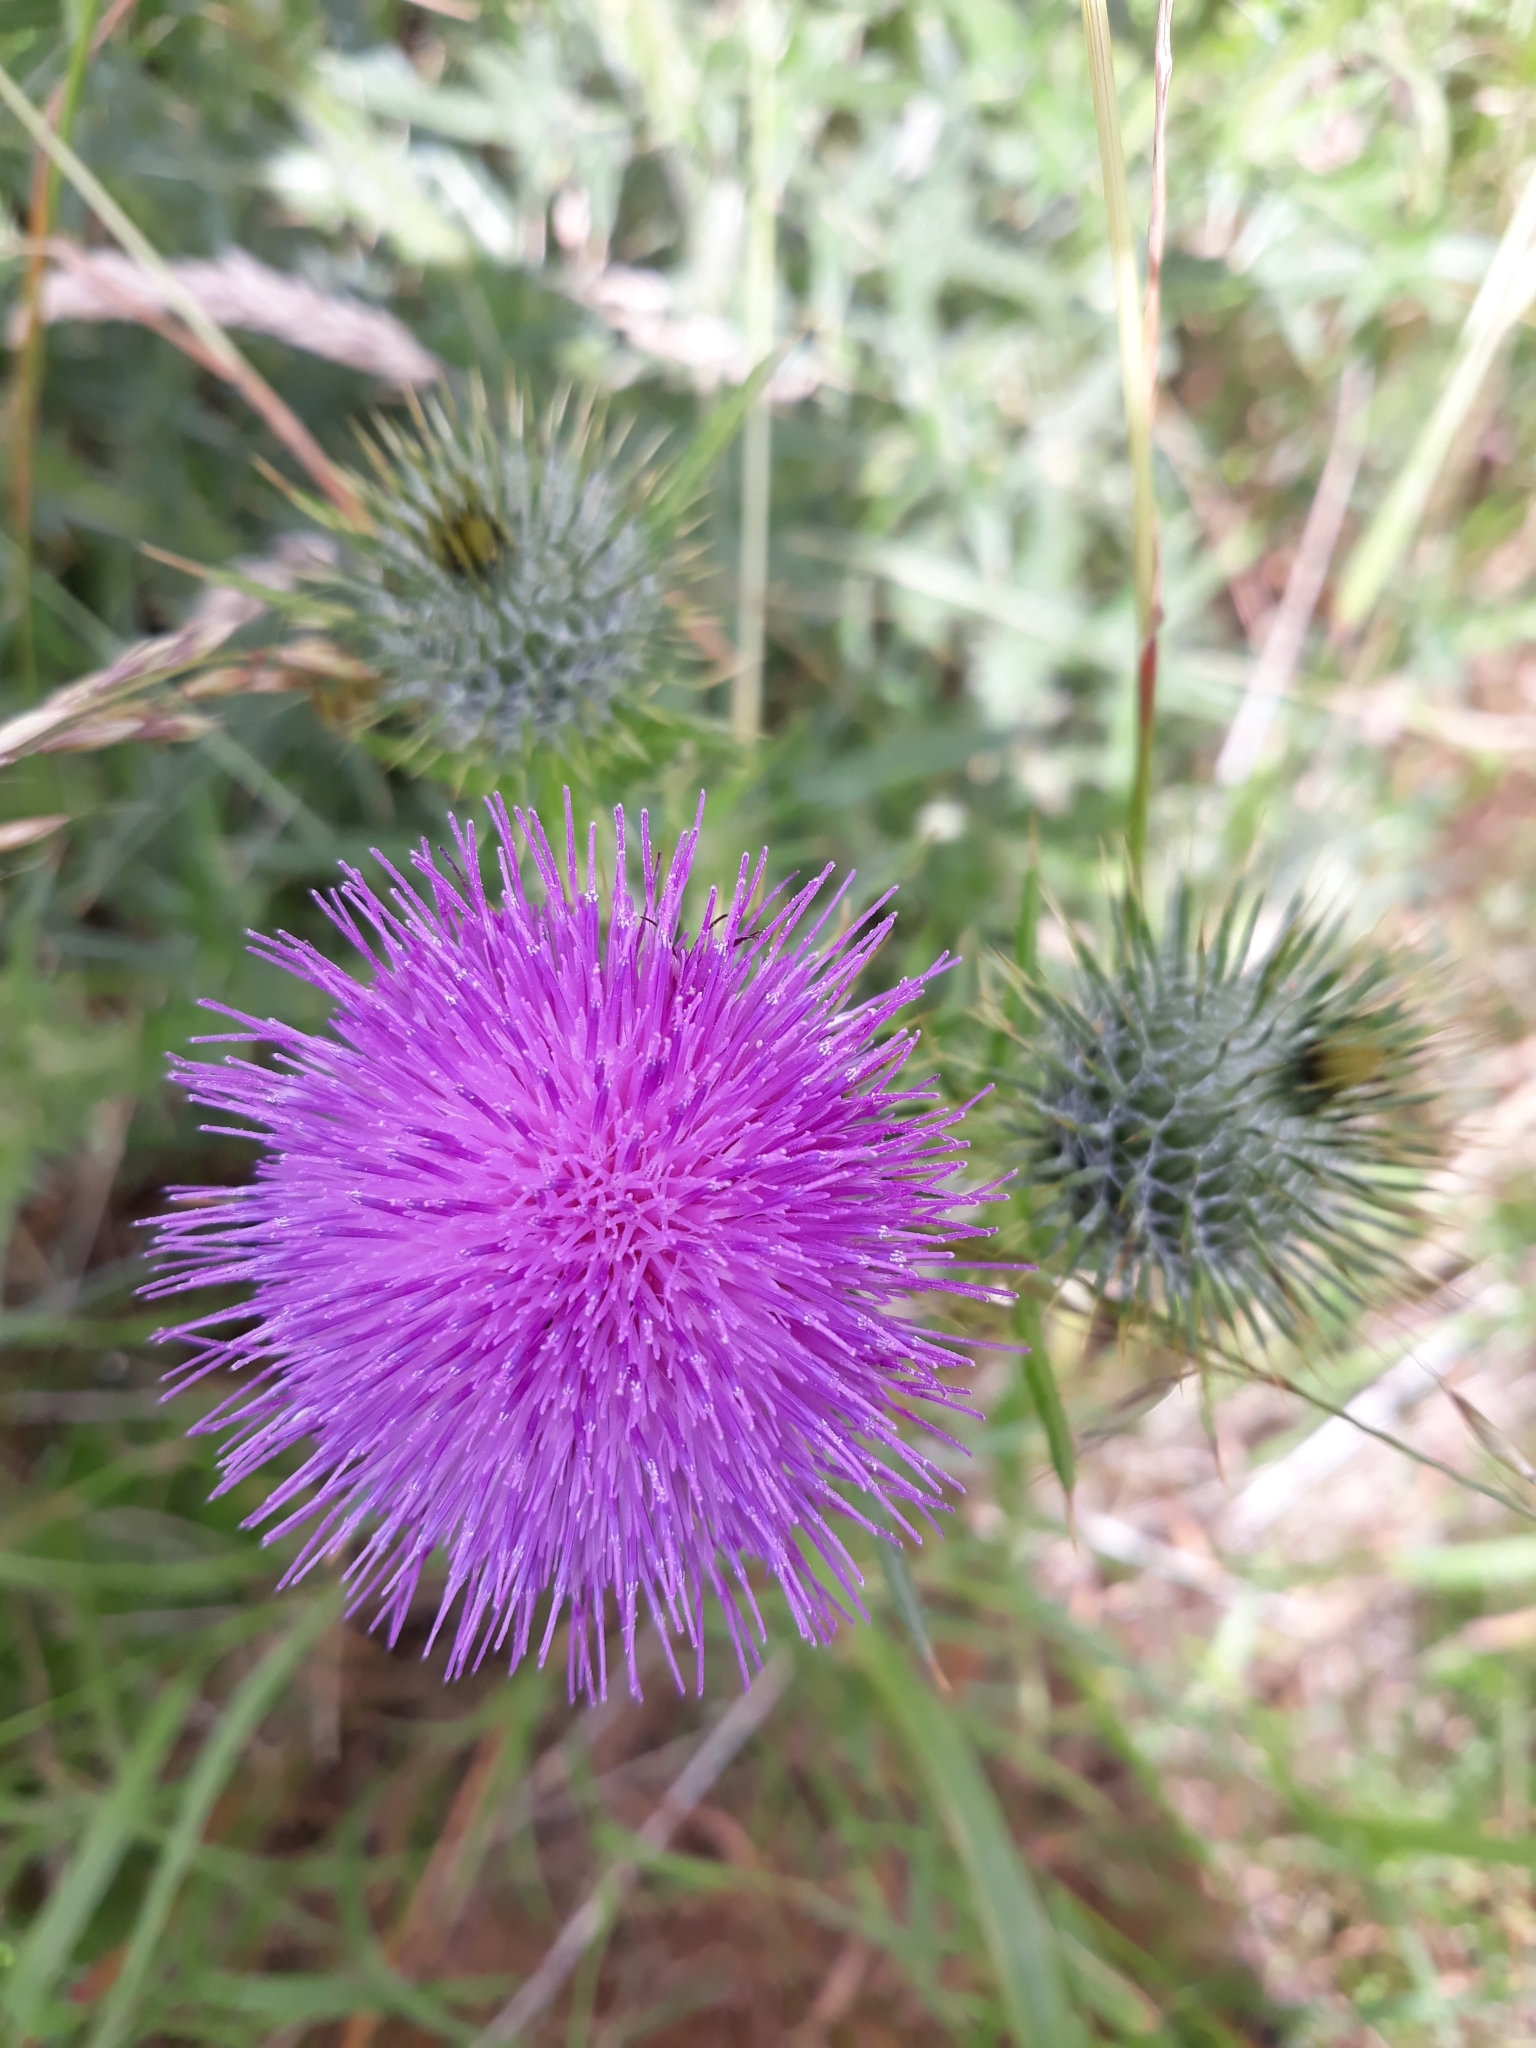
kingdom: Plantae
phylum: Tracheophyta
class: Magnoliopsida
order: Asterales
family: Asteraceae
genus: Cirsium
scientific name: Cirsium vulgare
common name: Bull thistle
